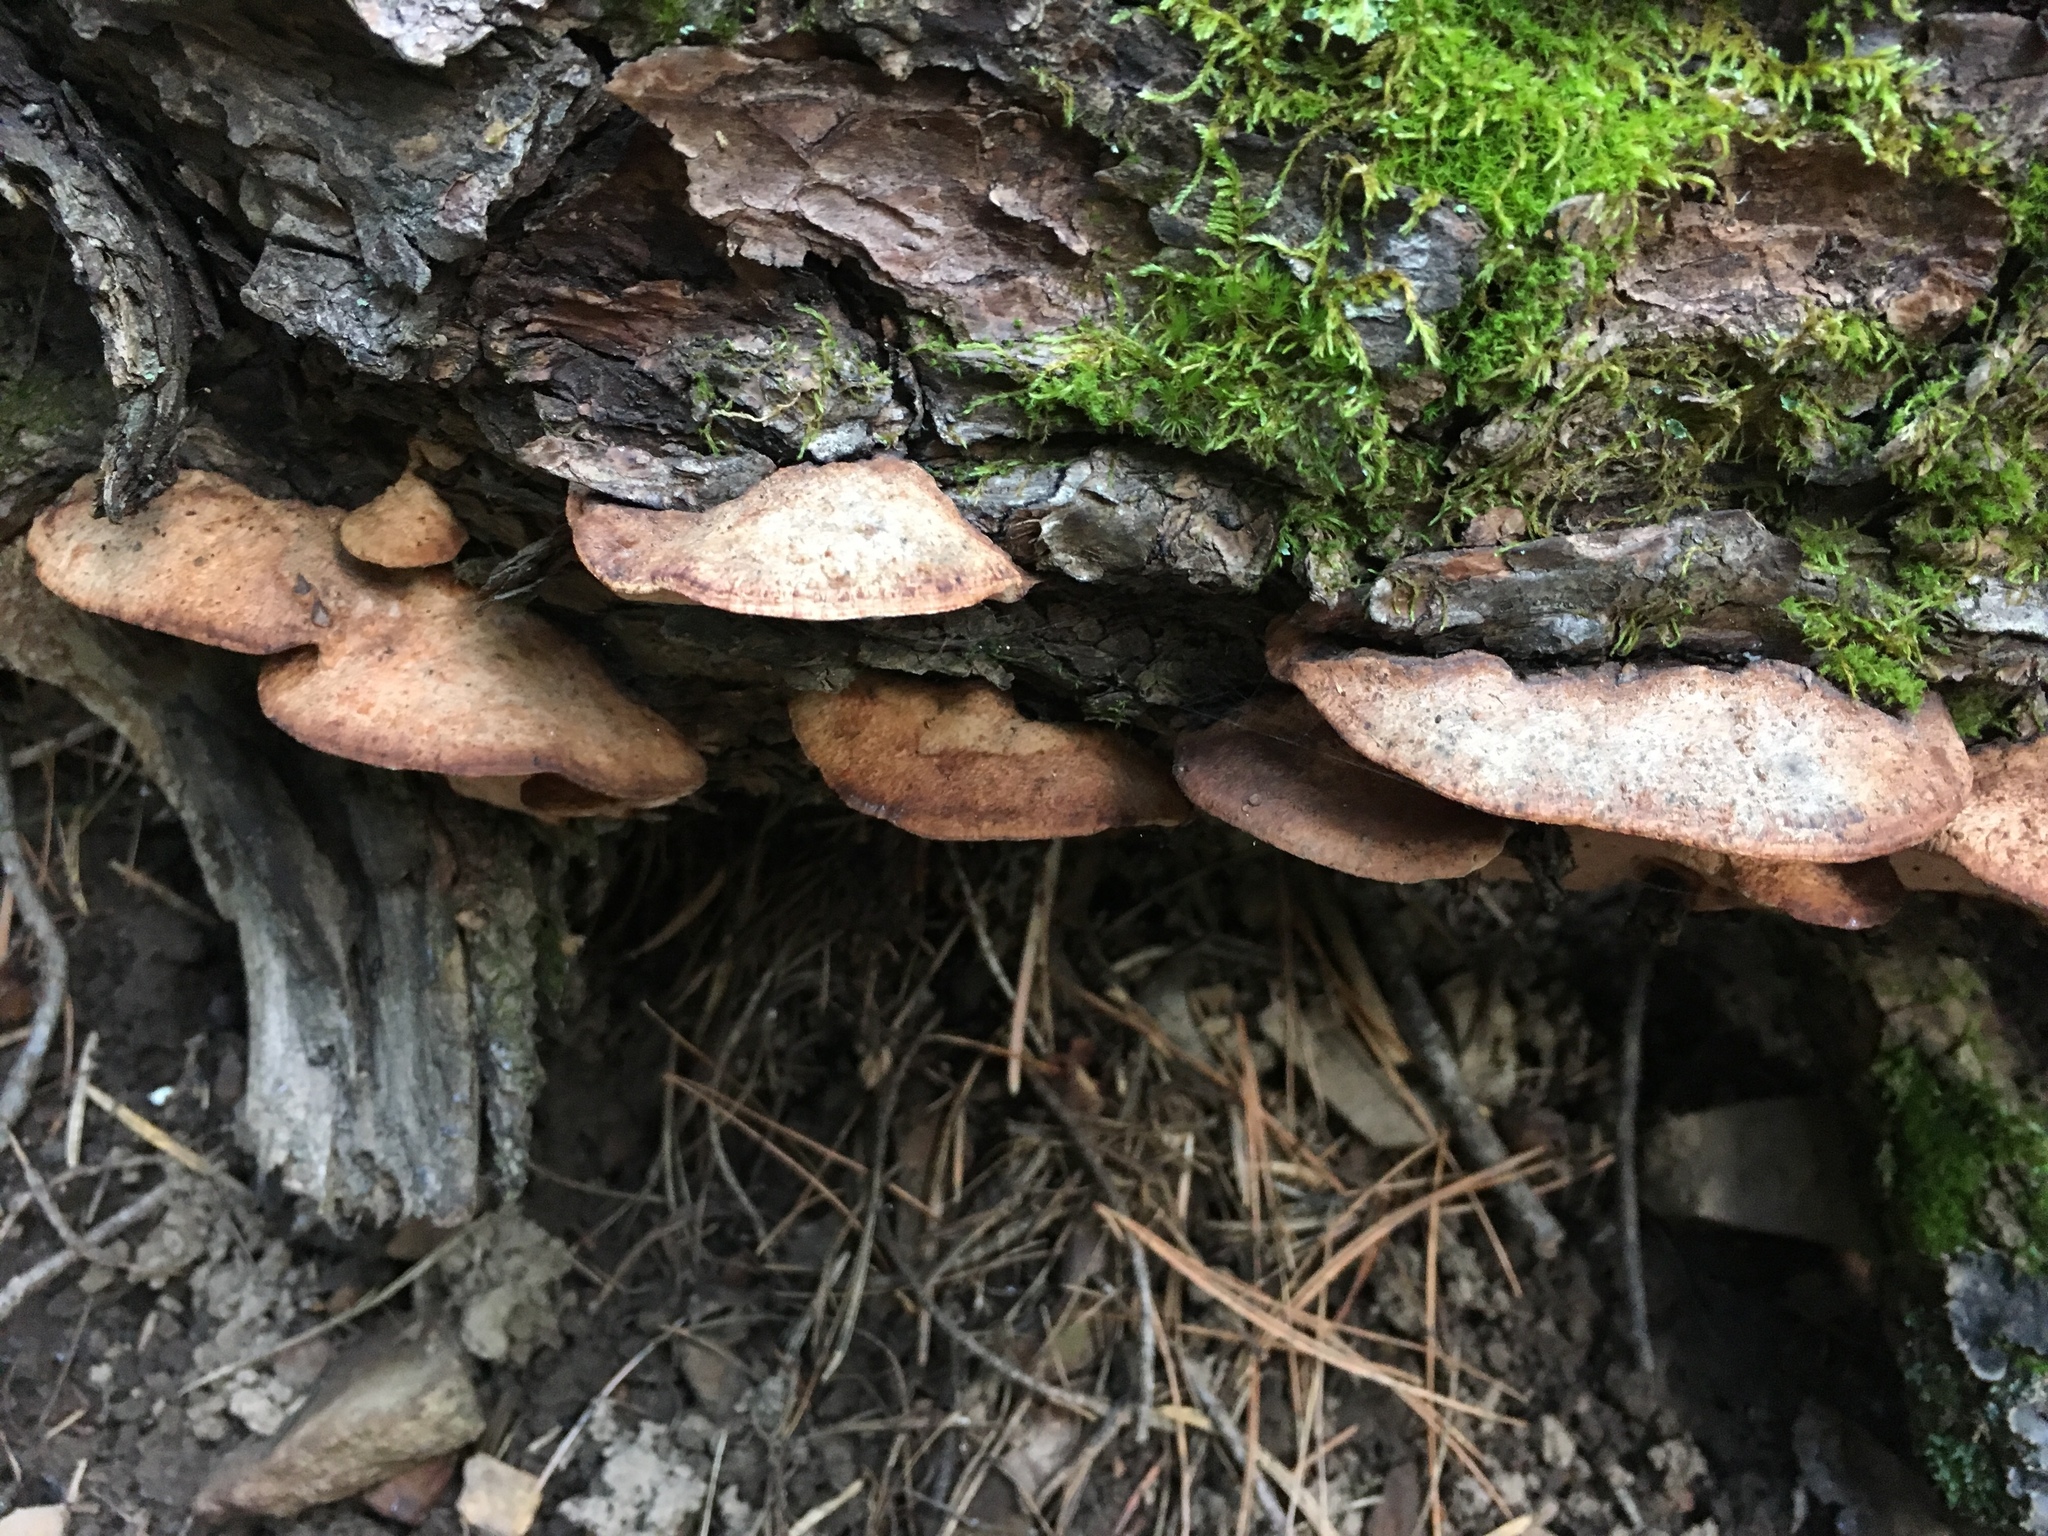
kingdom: Fungi
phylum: Basidiomycota
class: Agaricomycetes
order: Polyporales
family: Fomitopsidaceae
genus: Rhodofomes
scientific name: Rhodofomes cajanderi
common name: Rosy conk
